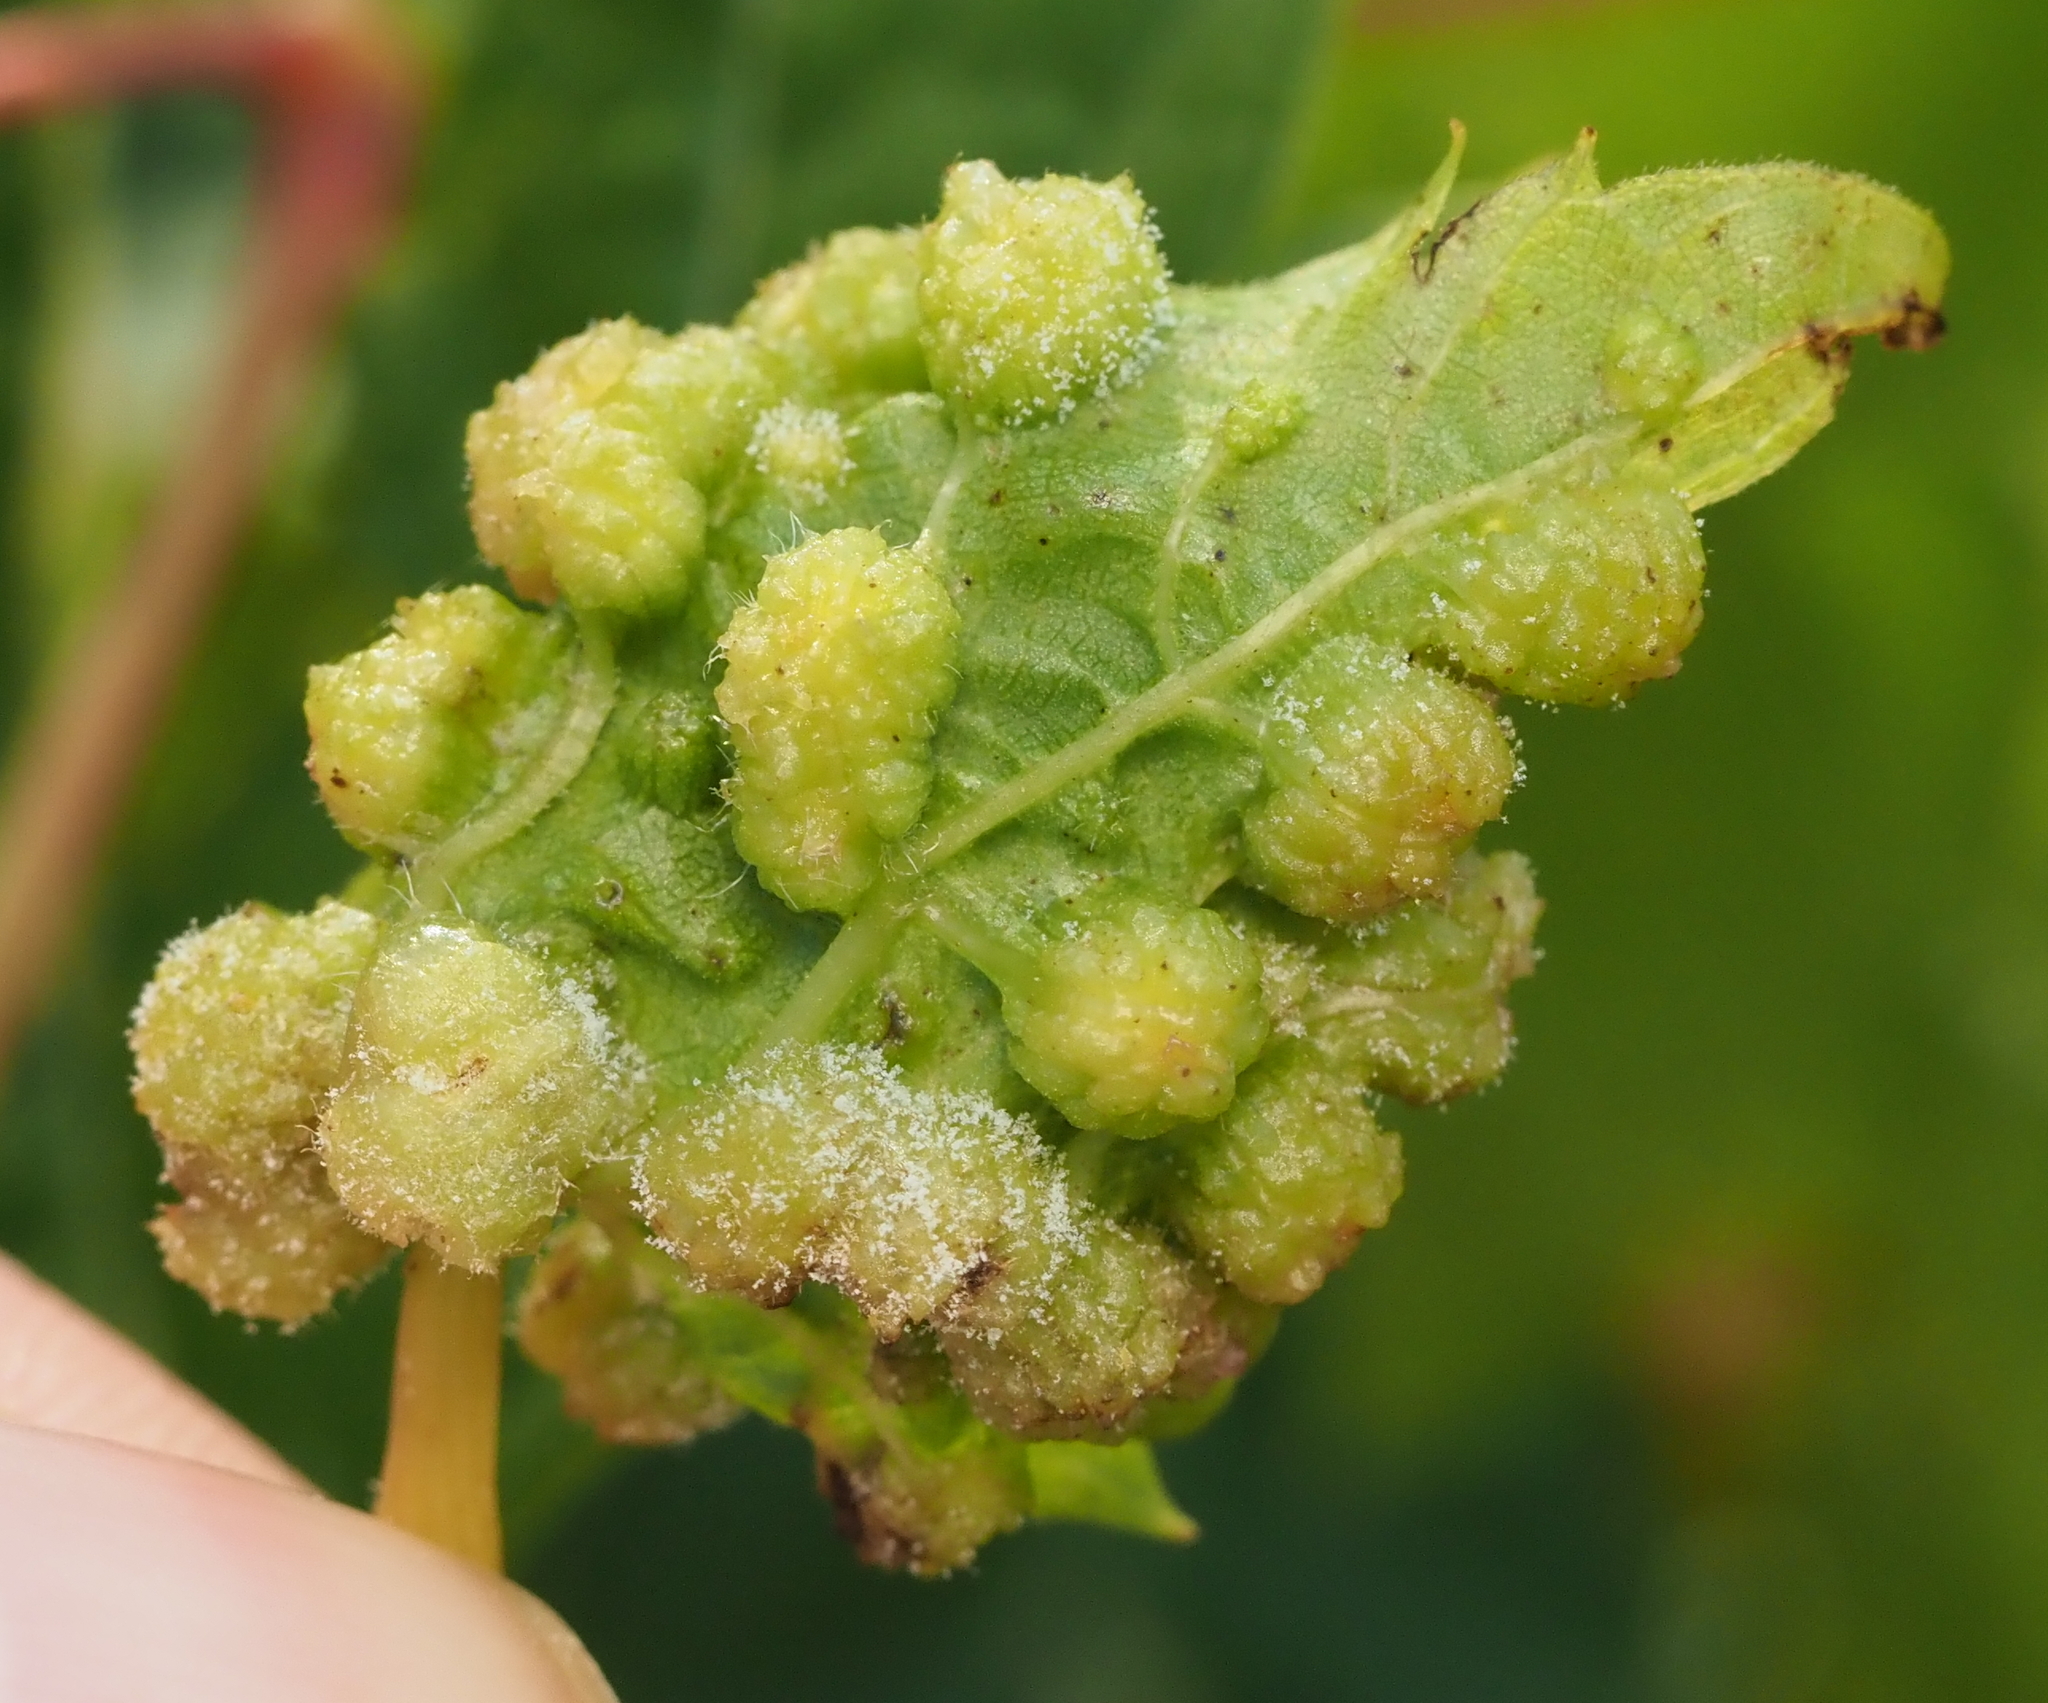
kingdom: Animalia
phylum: Arthropoda
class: Insecta
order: Hemiptera
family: Phylloxeridae
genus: Daktulosphaira
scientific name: Daktulosphaira vitifoliae
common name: Grape phylloxera
